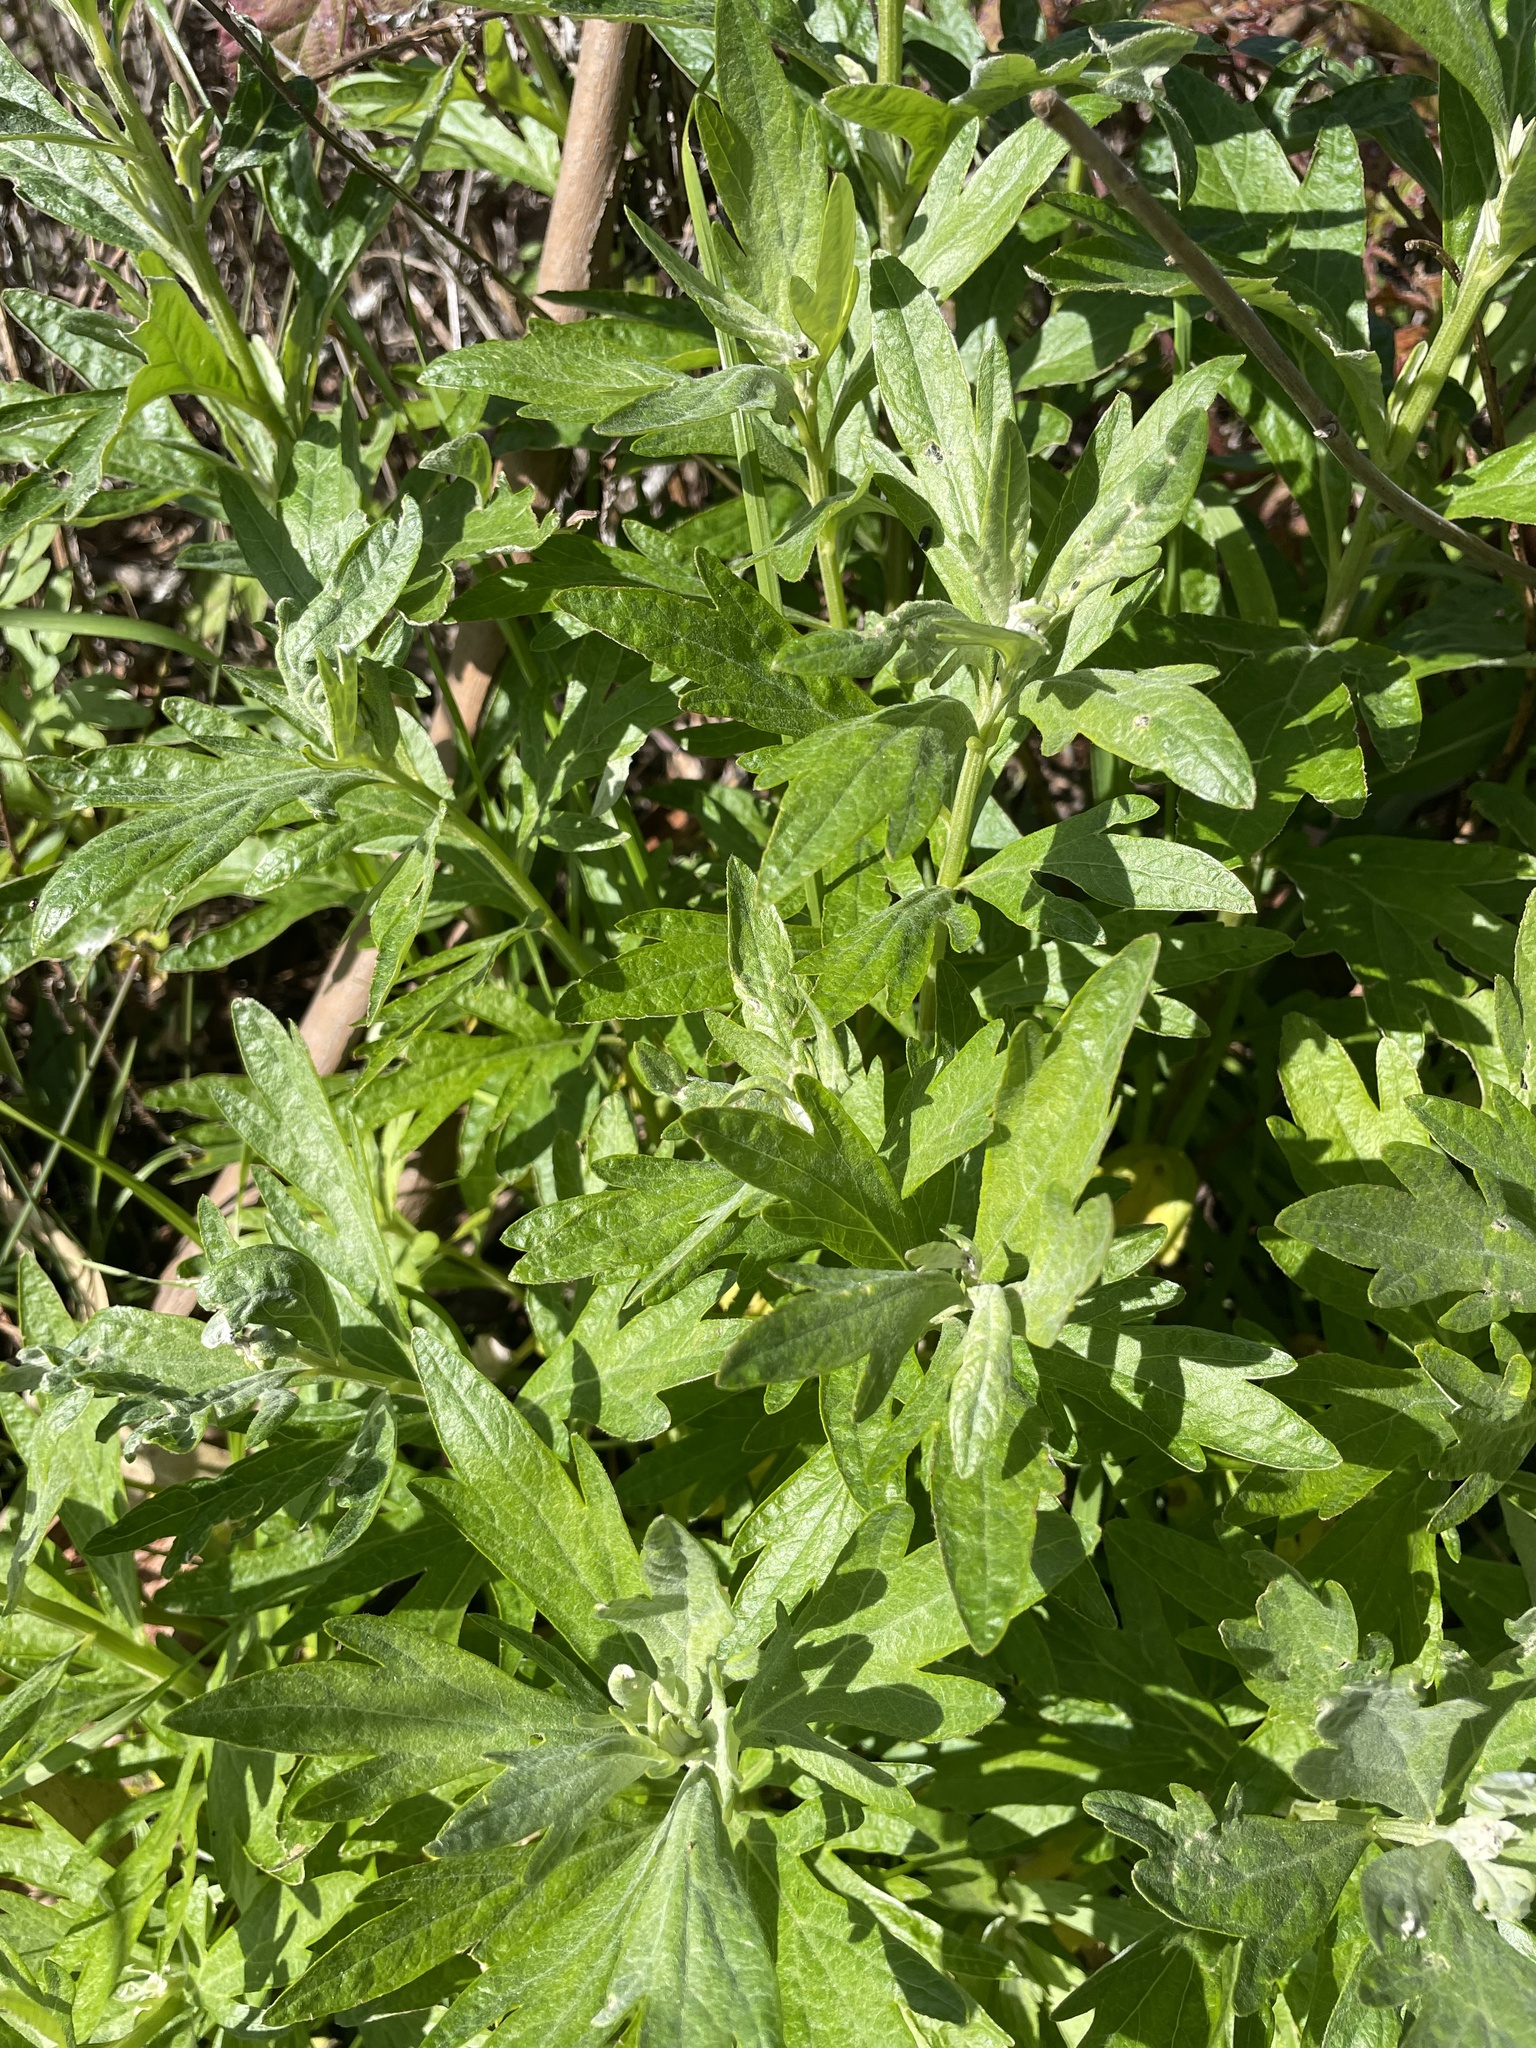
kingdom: Plantae
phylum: Tracheophyta
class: Magnoliopsida
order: Asterales
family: Asteraceae
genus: Artemisia
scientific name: Artemisia douglasiana
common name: Northwest mugwort
